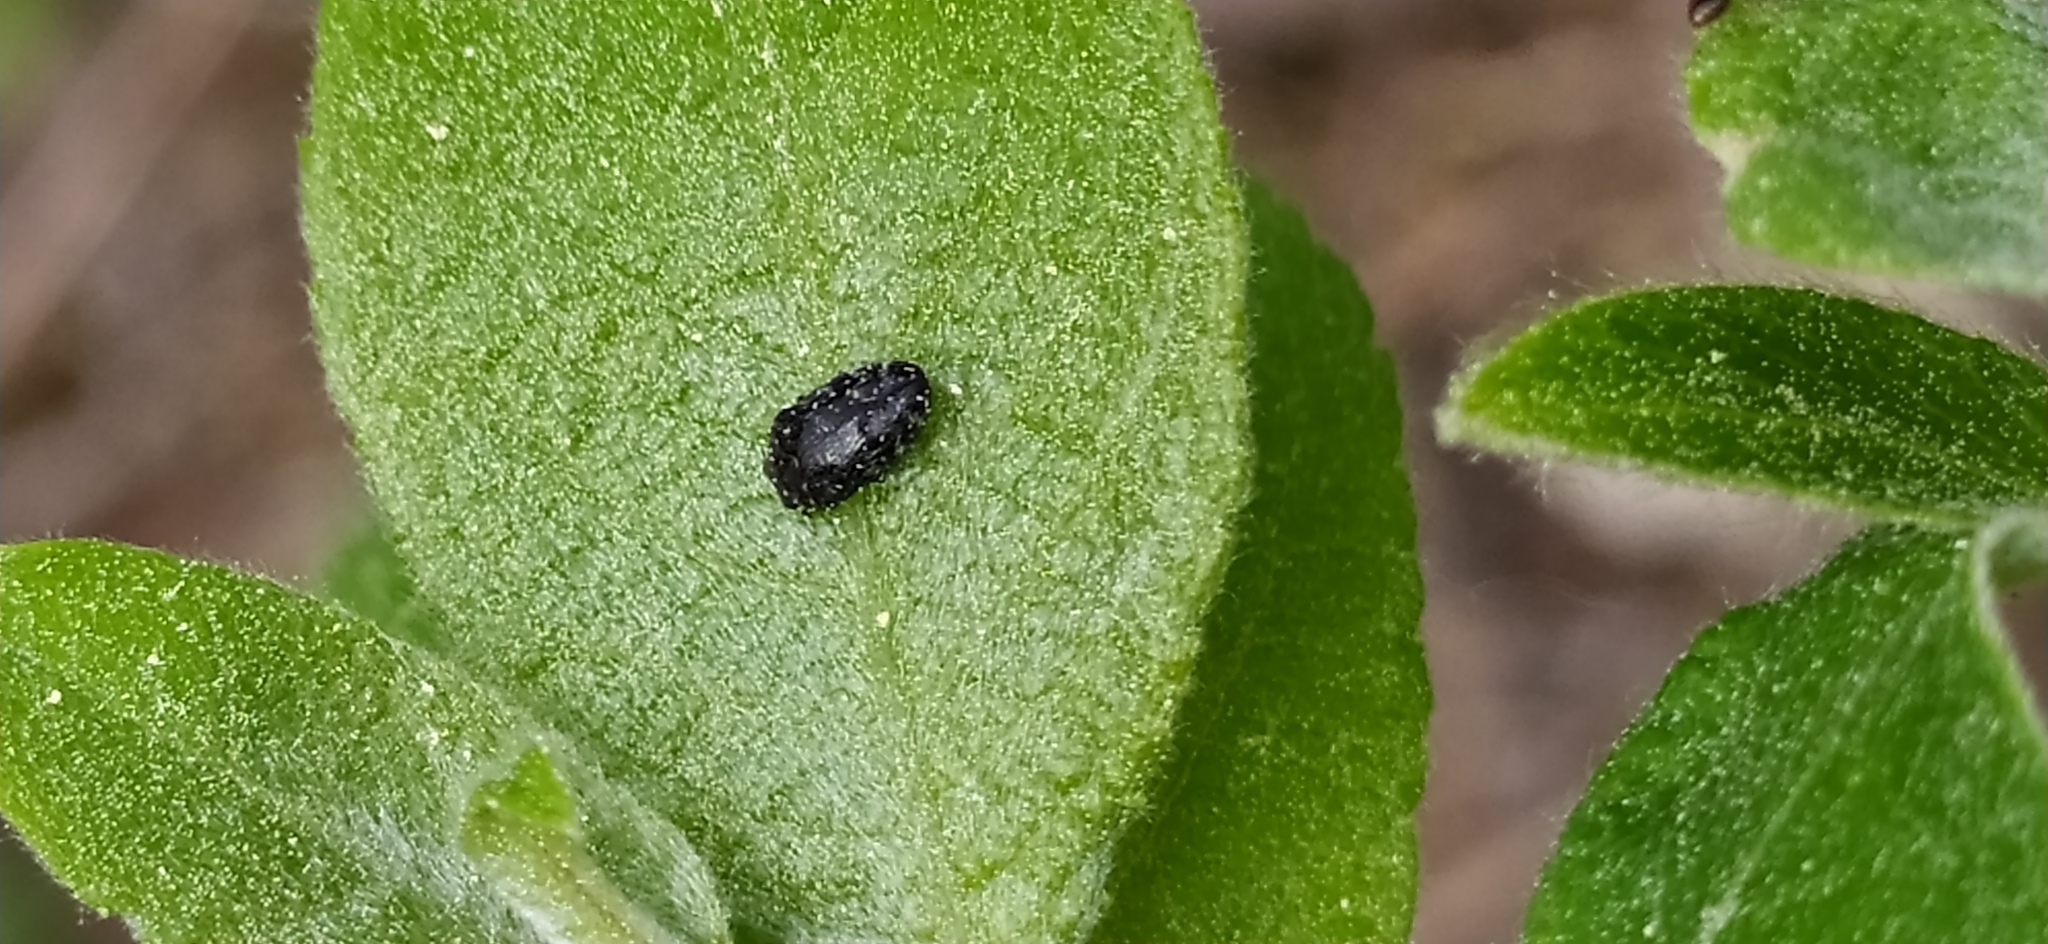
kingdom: Animalia
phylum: Arthropoda
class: Insecta
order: Coleoptera
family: Buprestidae
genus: Trachys
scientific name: Trachys minutus
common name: Metallic wood-boring beetle
